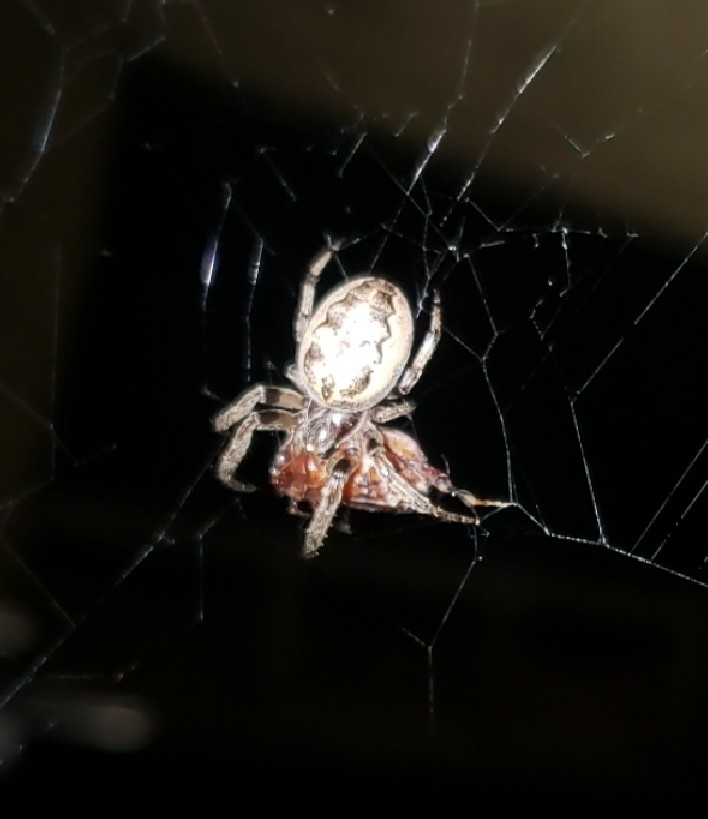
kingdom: Animalia
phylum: Arthropoda
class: Arachnida
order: Araneae
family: Araneidae
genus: Larinioides
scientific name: Larinioides cornutus
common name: Furrow orbweaver
